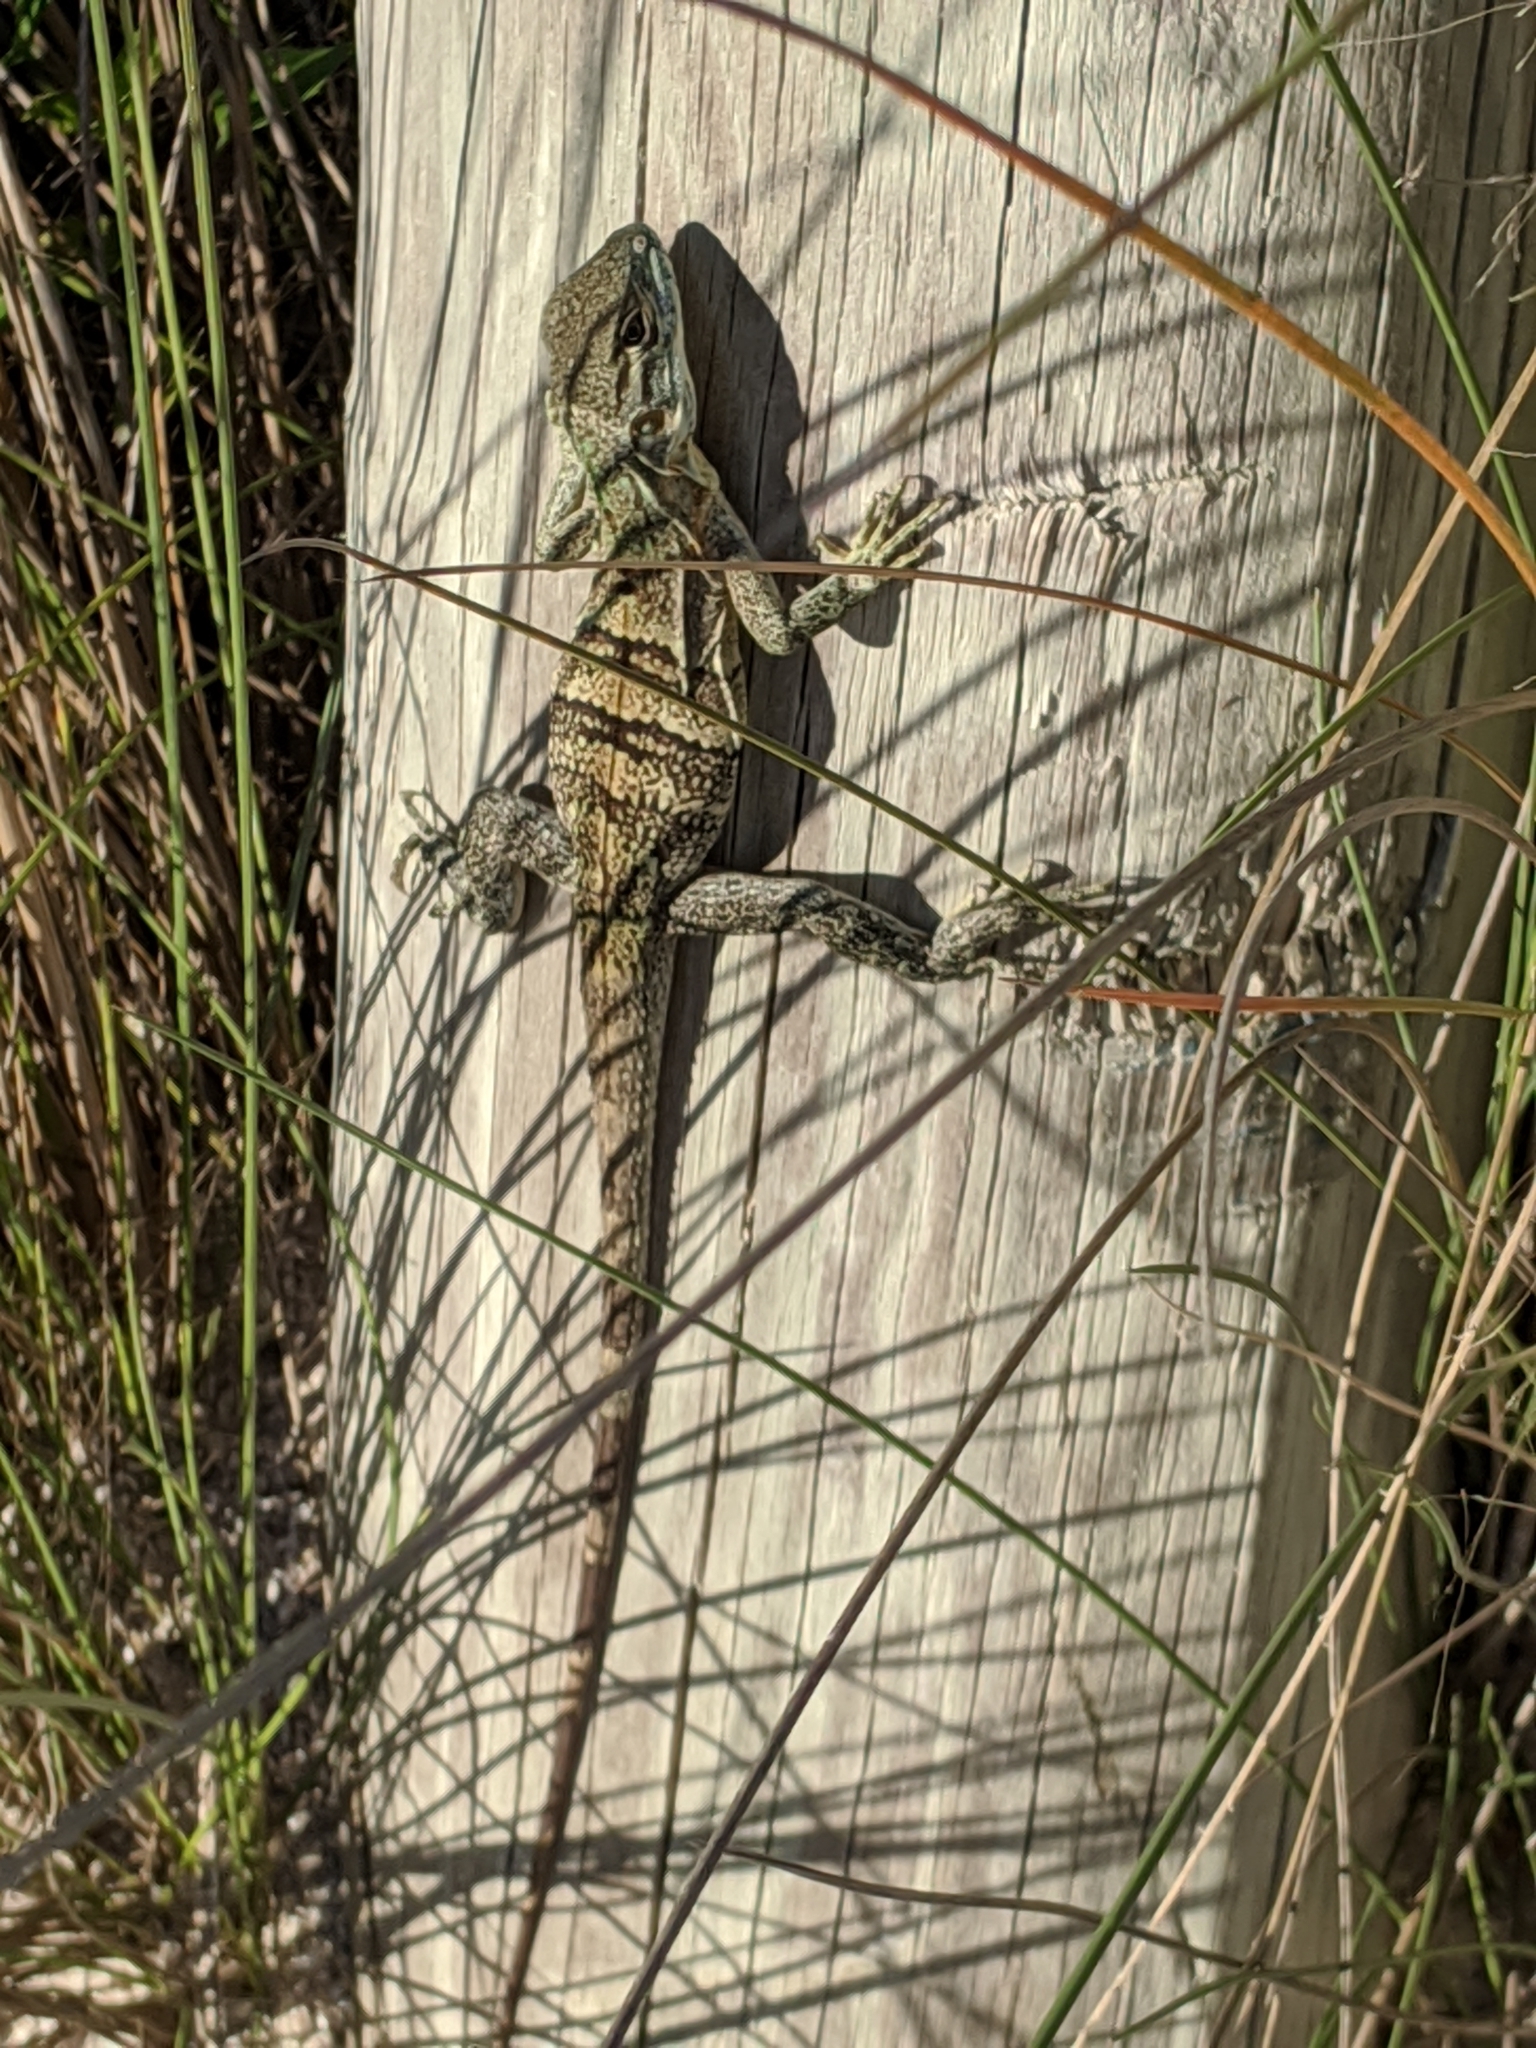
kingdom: Animalia
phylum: Chordata
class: Squamata
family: Iguanidae
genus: Ctenosaura
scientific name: Ctenosaura similis
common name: Black spiny-tailed iguana
